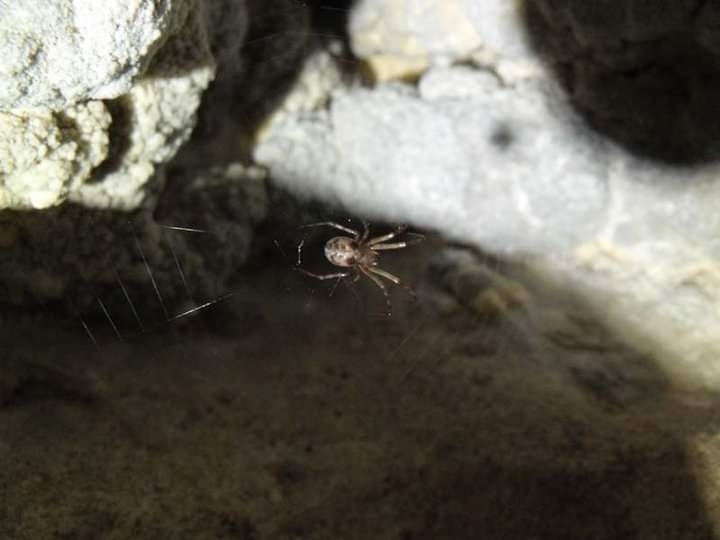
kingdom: Animalia
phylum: Arthropoda
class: Arachnida
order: Araneae
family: Tetragnathidae
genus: Meta
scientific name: Meta menardi
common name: Cave spider
